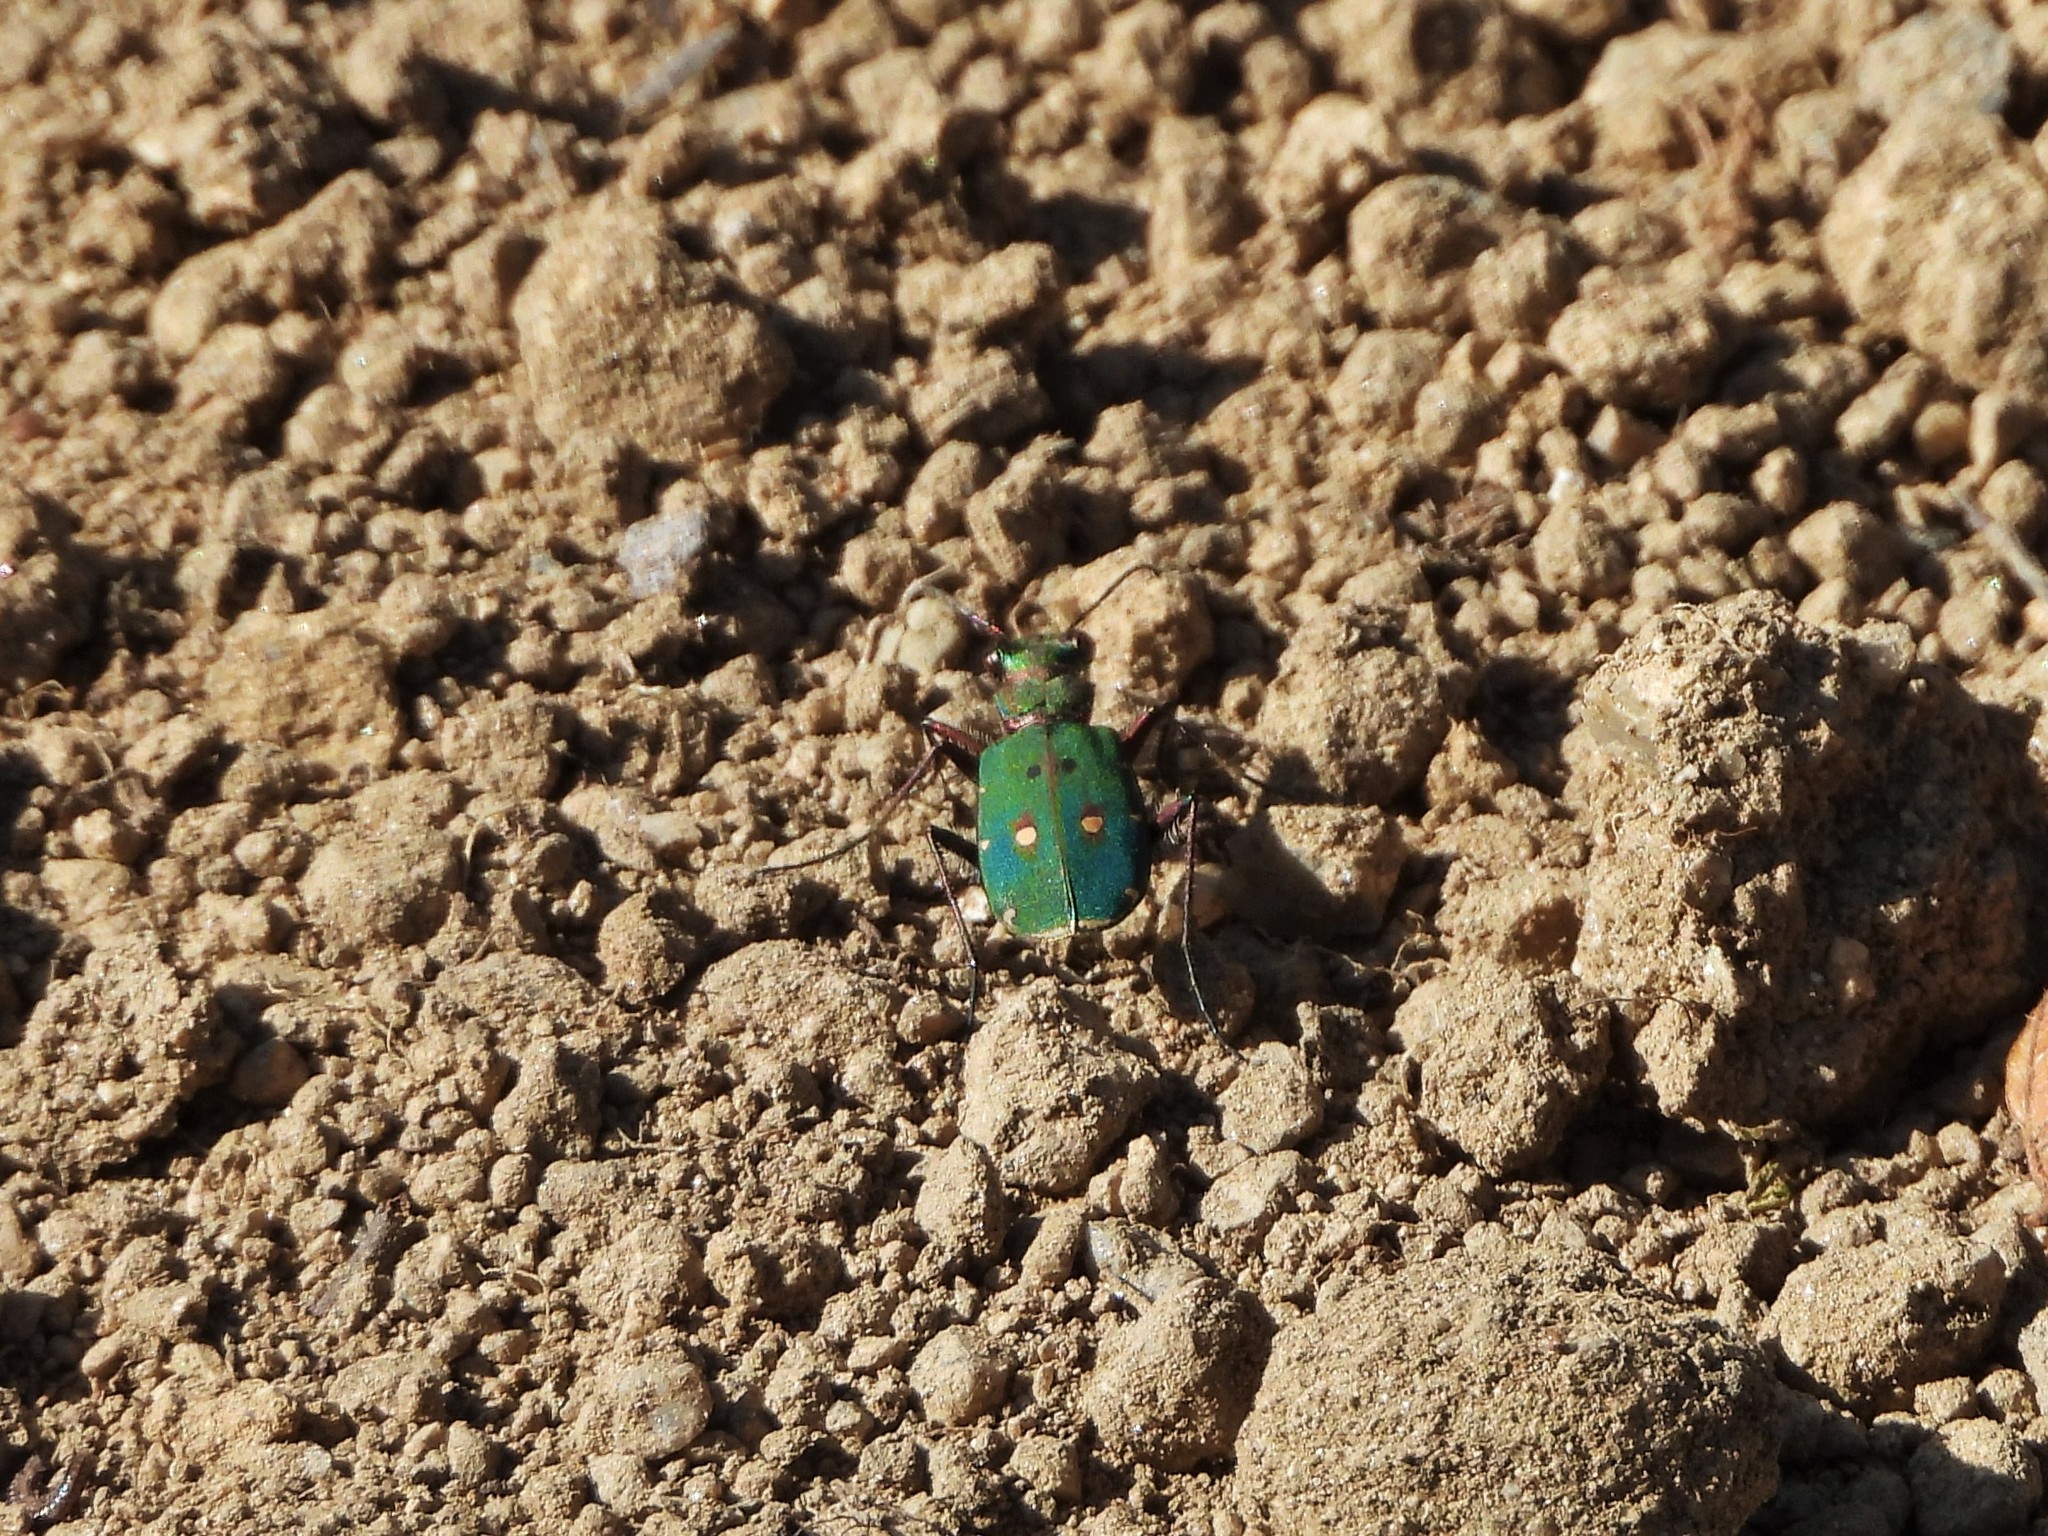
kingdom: Animalia
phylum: Arthropoda
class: Insecta
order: Coleoptera
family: Carabidae
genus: Cicindela
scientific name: Cicindela campestris
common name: Common tiger beetle
